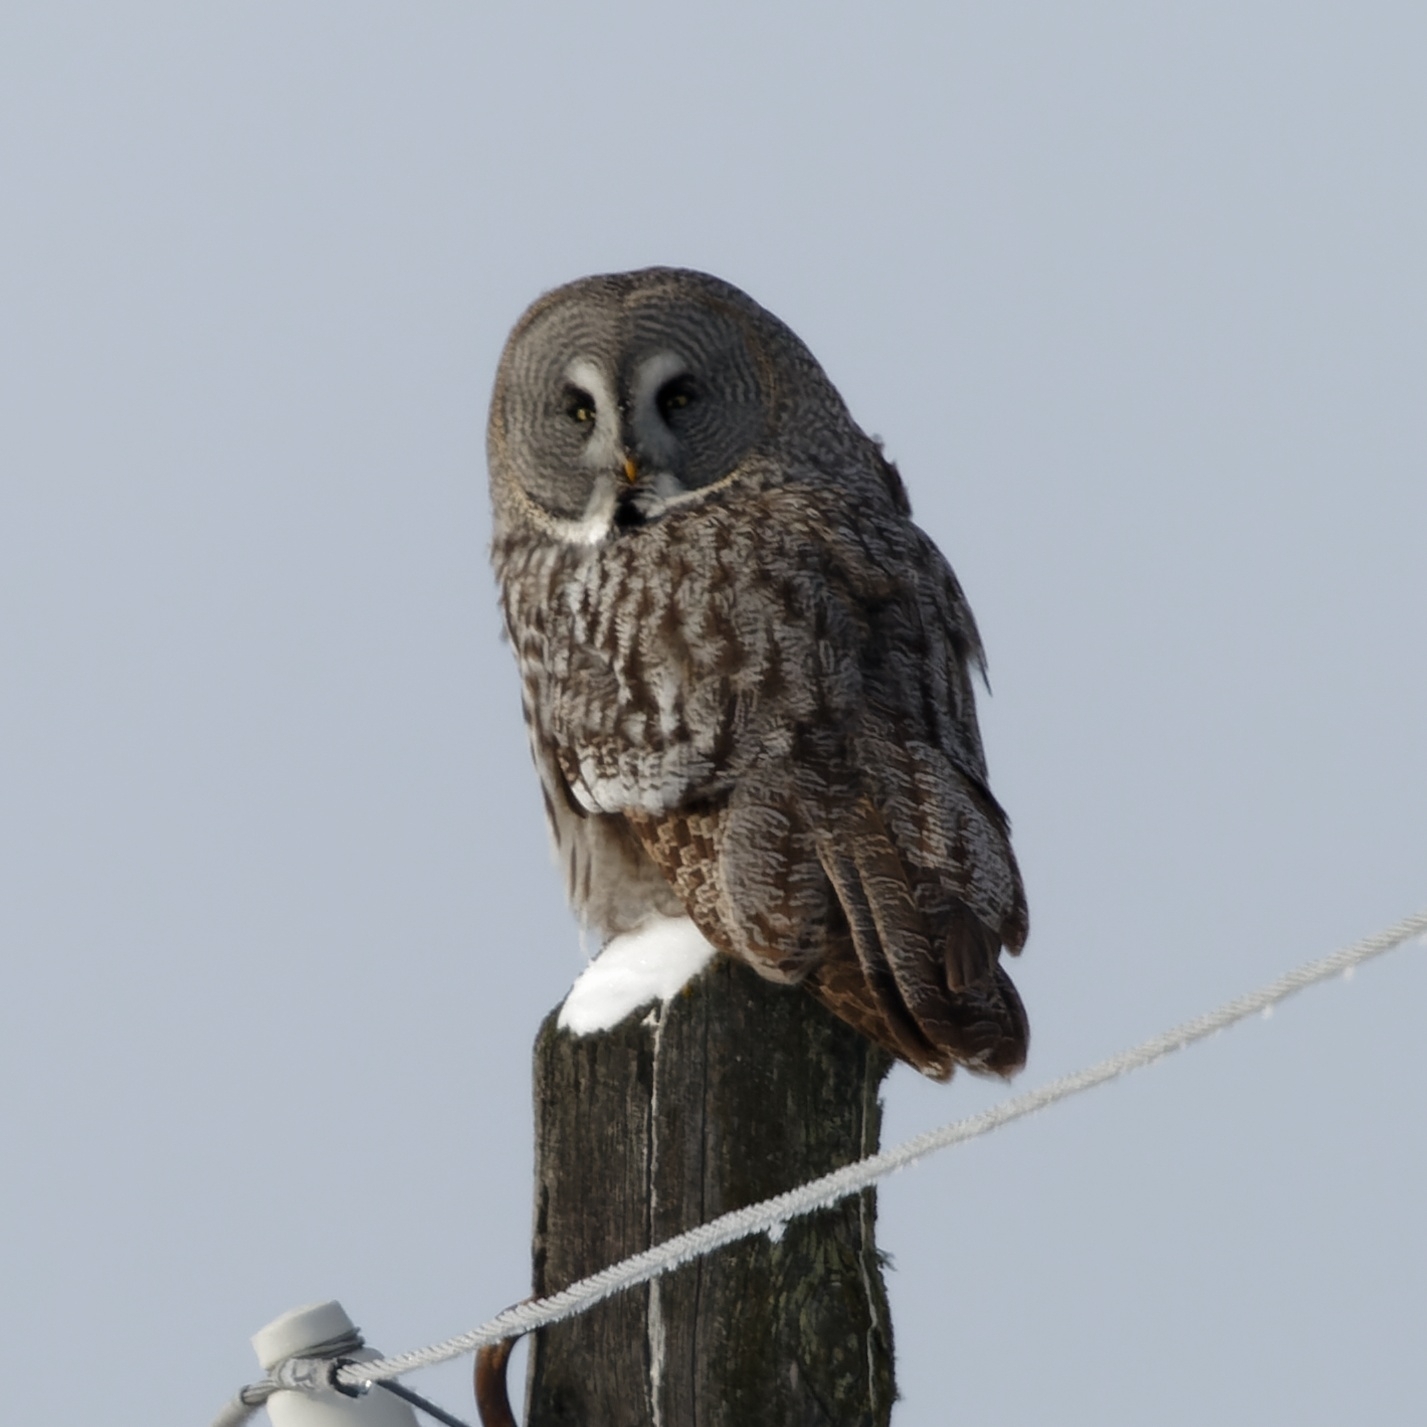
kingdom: Animalia
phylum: Chordata
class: Aves
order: Strigiformes
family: Strigidae
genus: Strix
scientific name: Strix nebulosa
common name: Great grey owl
